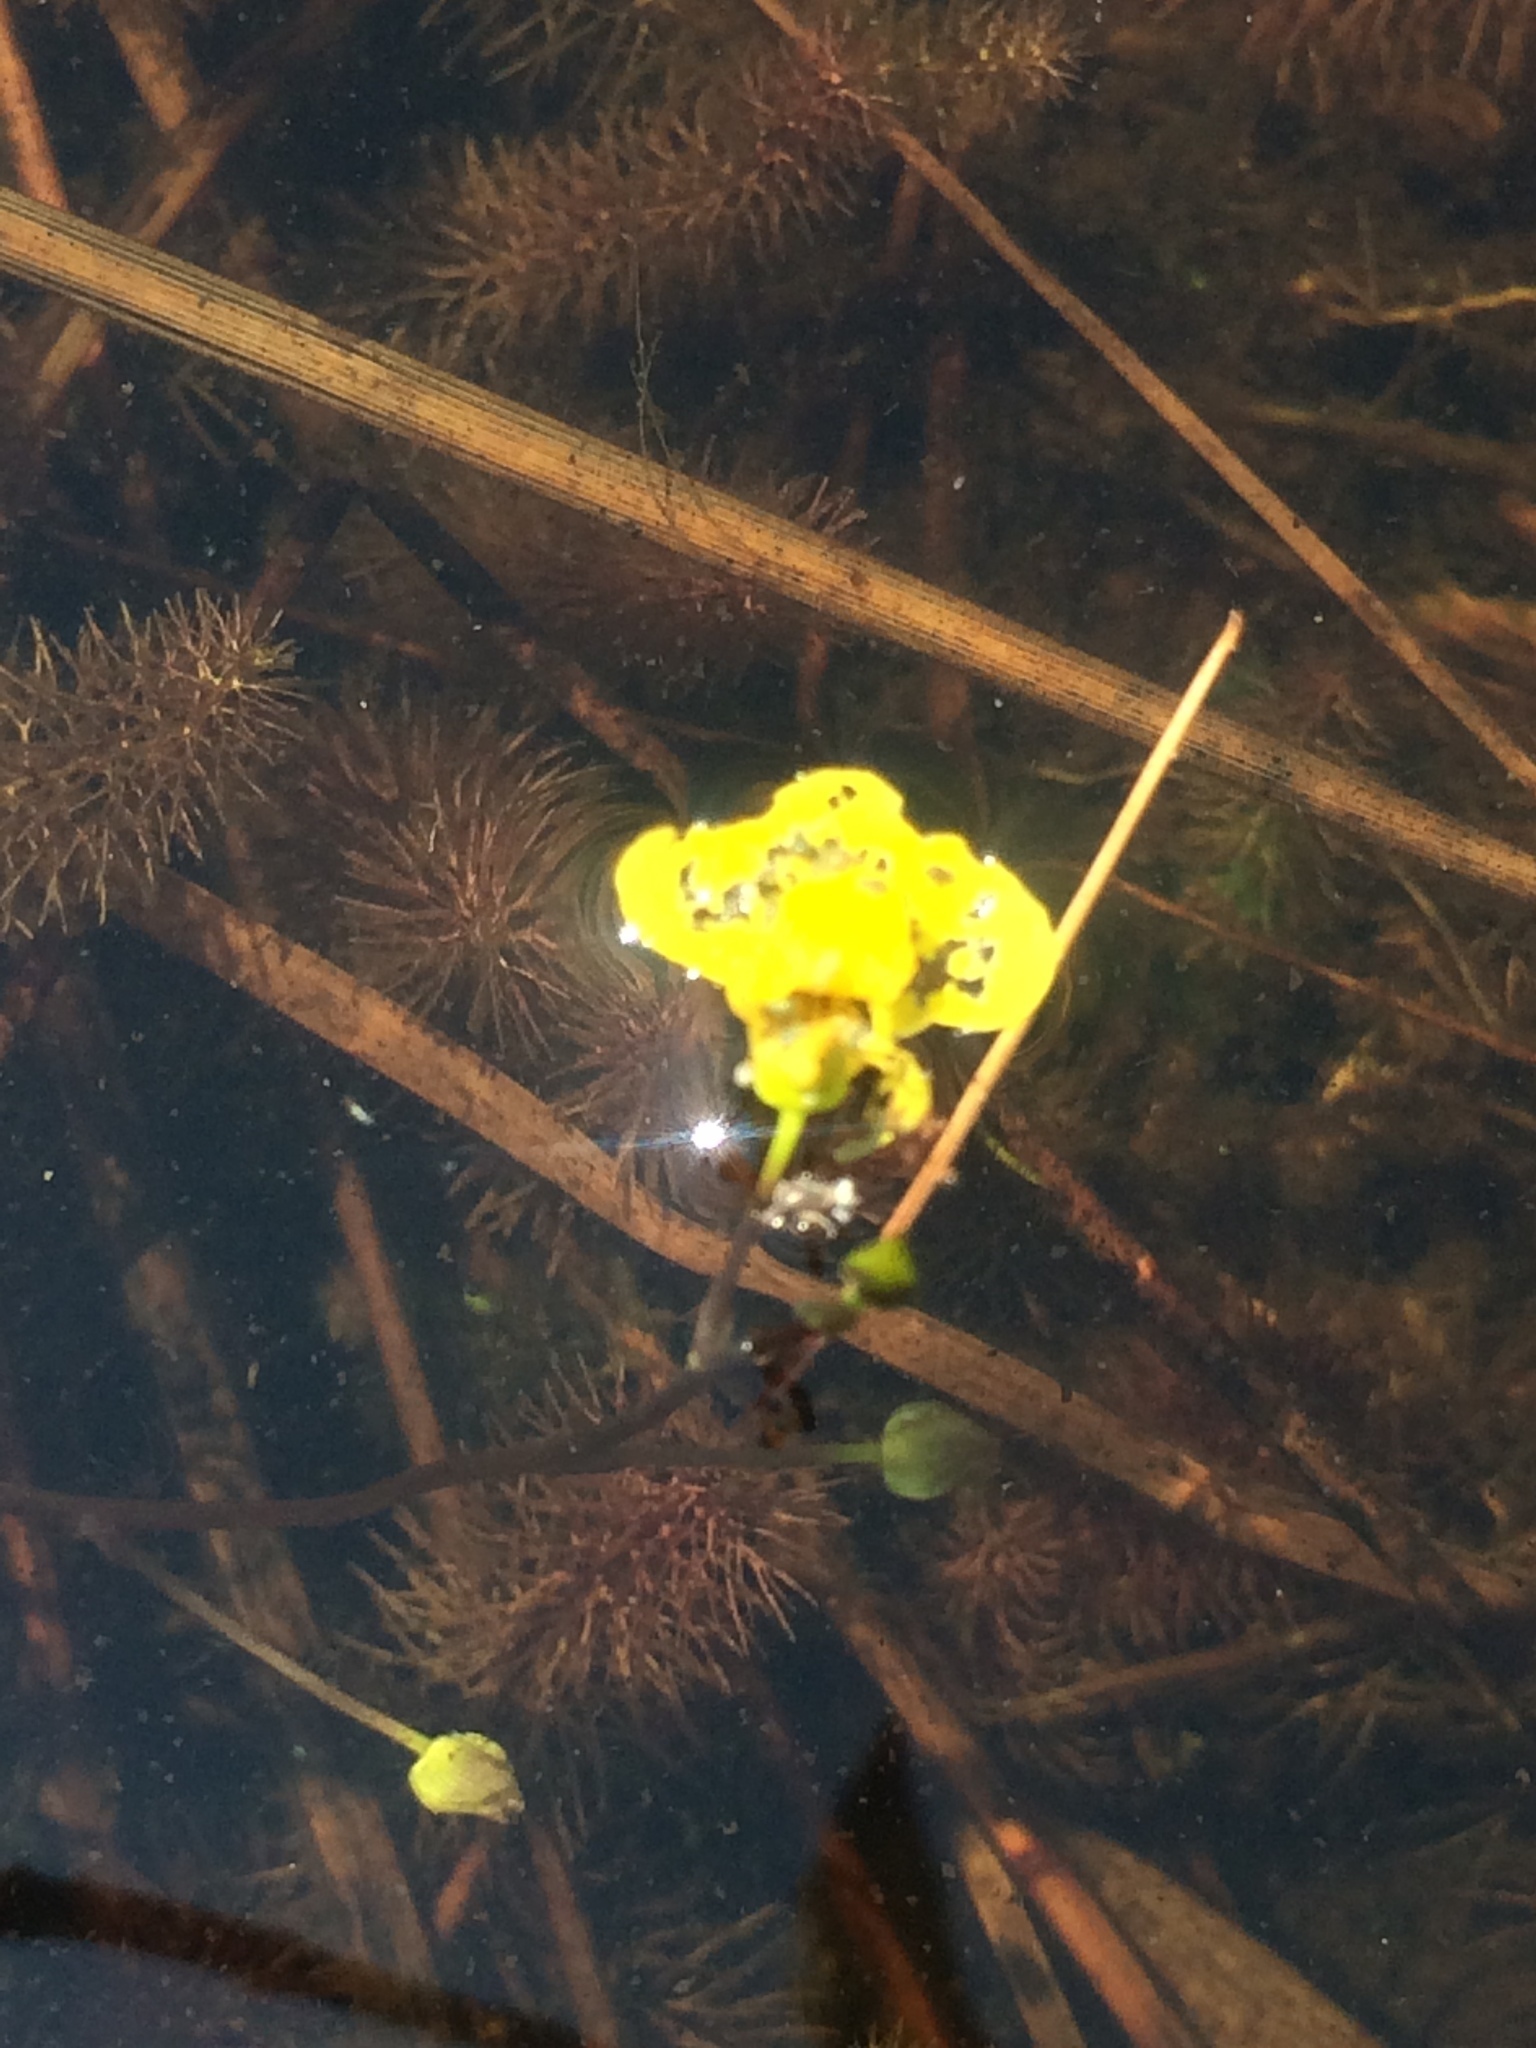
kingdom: Plantae
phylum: Tracheophyta
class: Magnoliopsida
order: Lamiales
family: Lentibulariaceae
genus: Utricularia
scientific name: Utricularia intermedia
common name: Intermediate bladderwort
